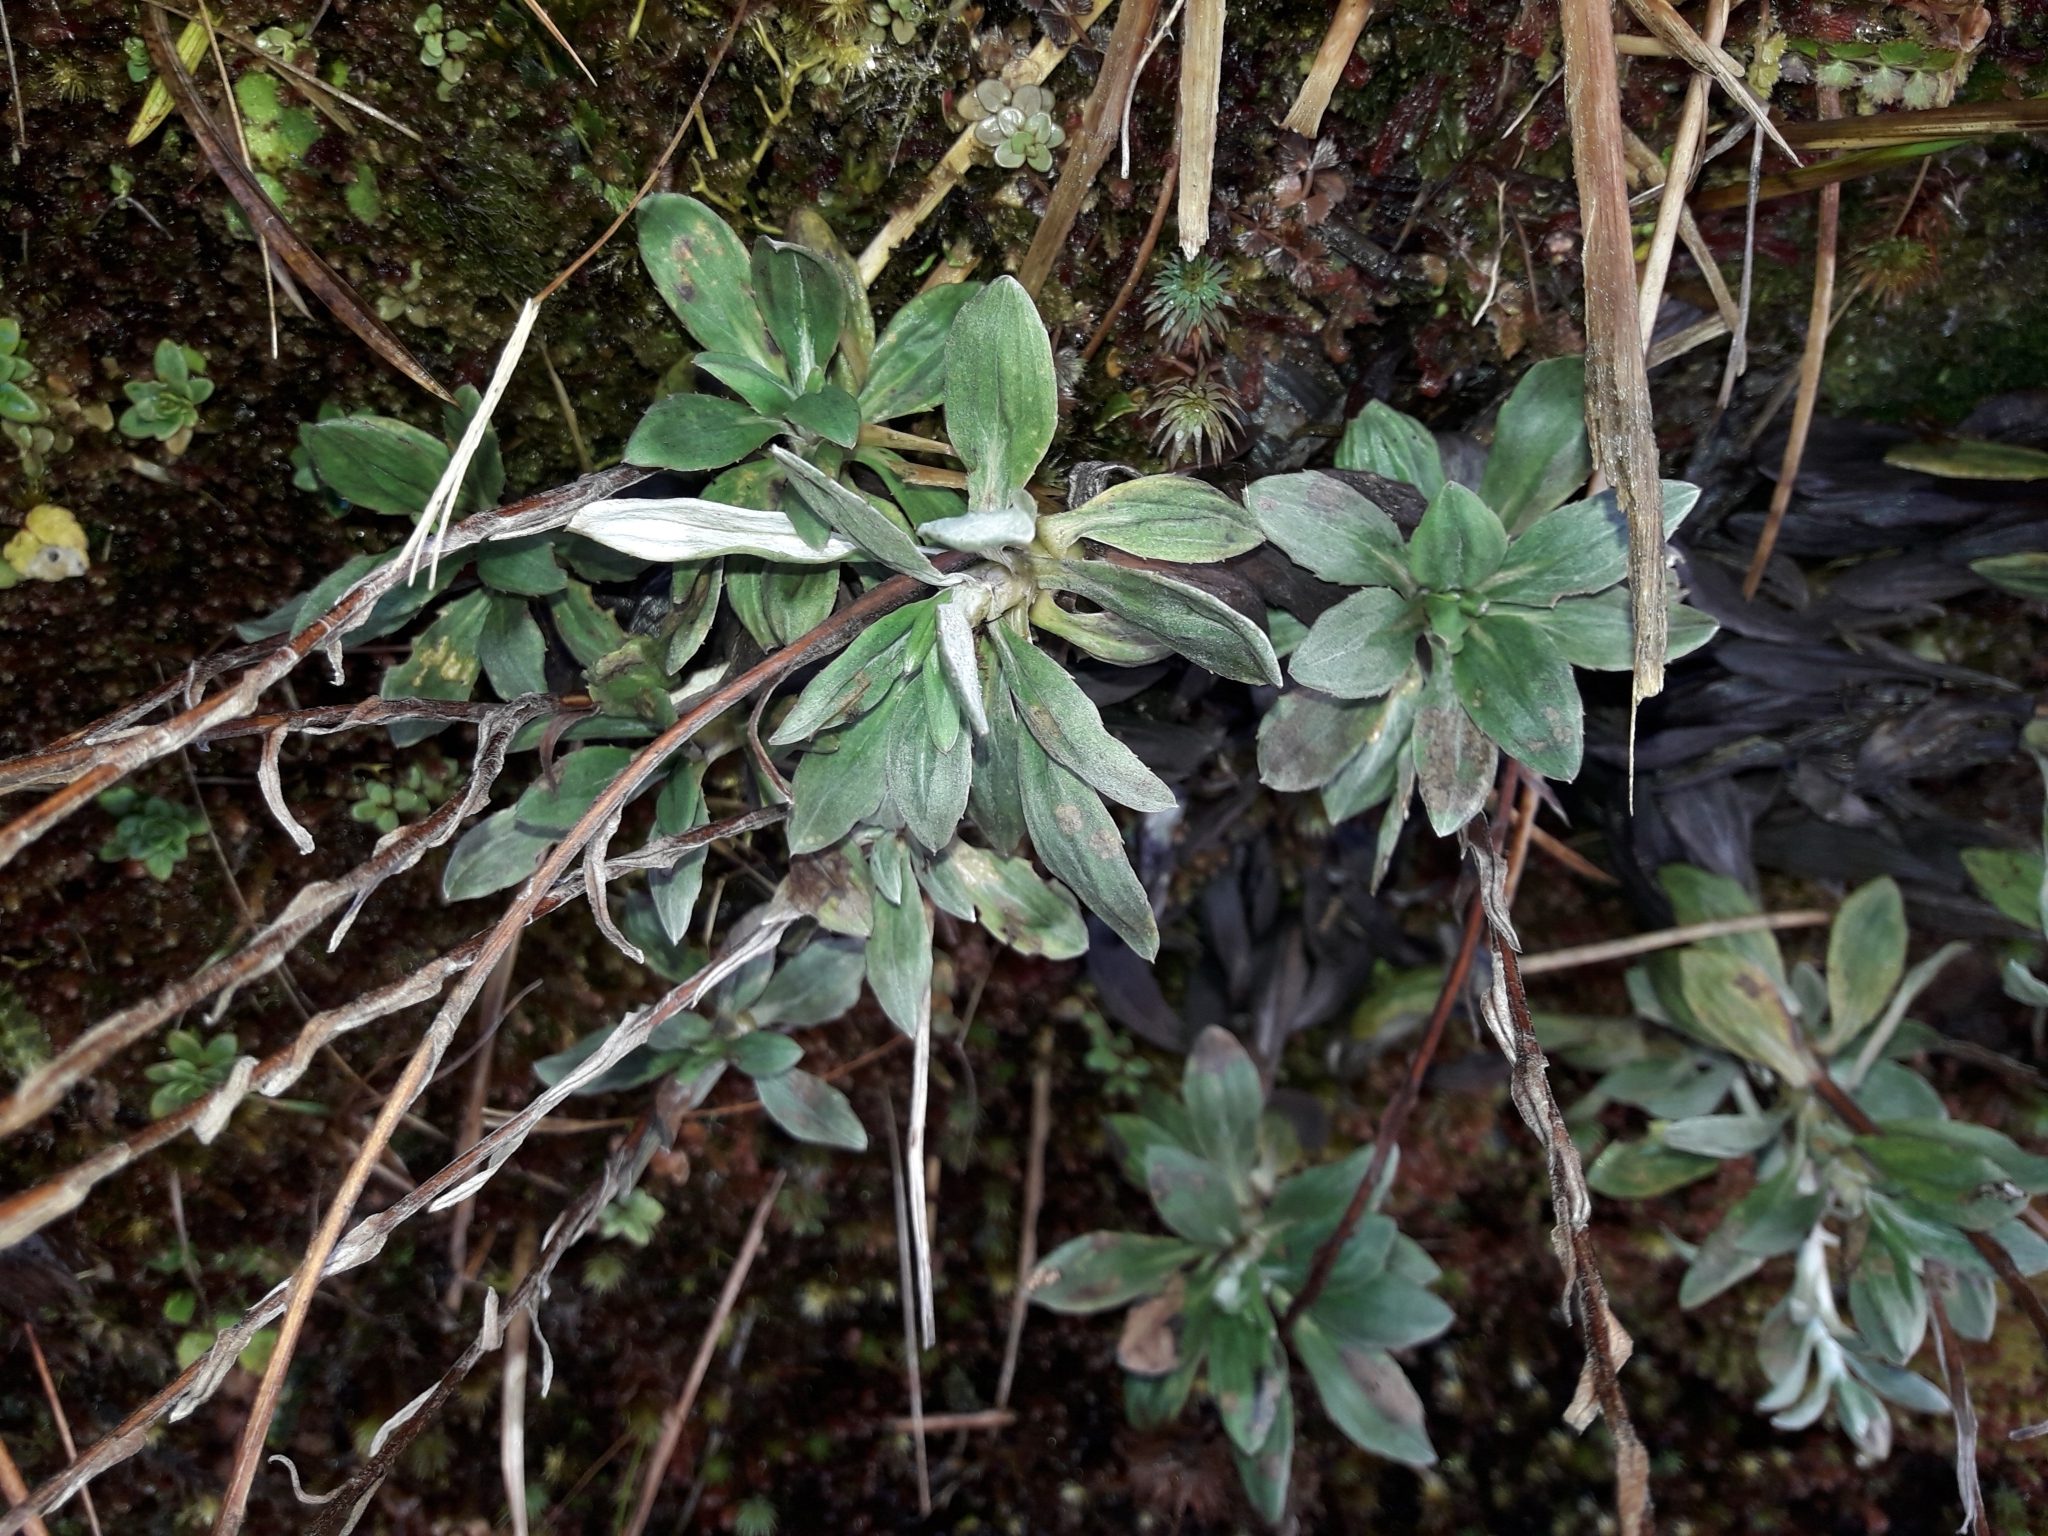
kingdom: Plantae
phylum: Tracheophyta
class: Magnoliopsida
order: Asterales
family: Asteraceae
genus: Celmisia
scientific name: Celmisia incana
